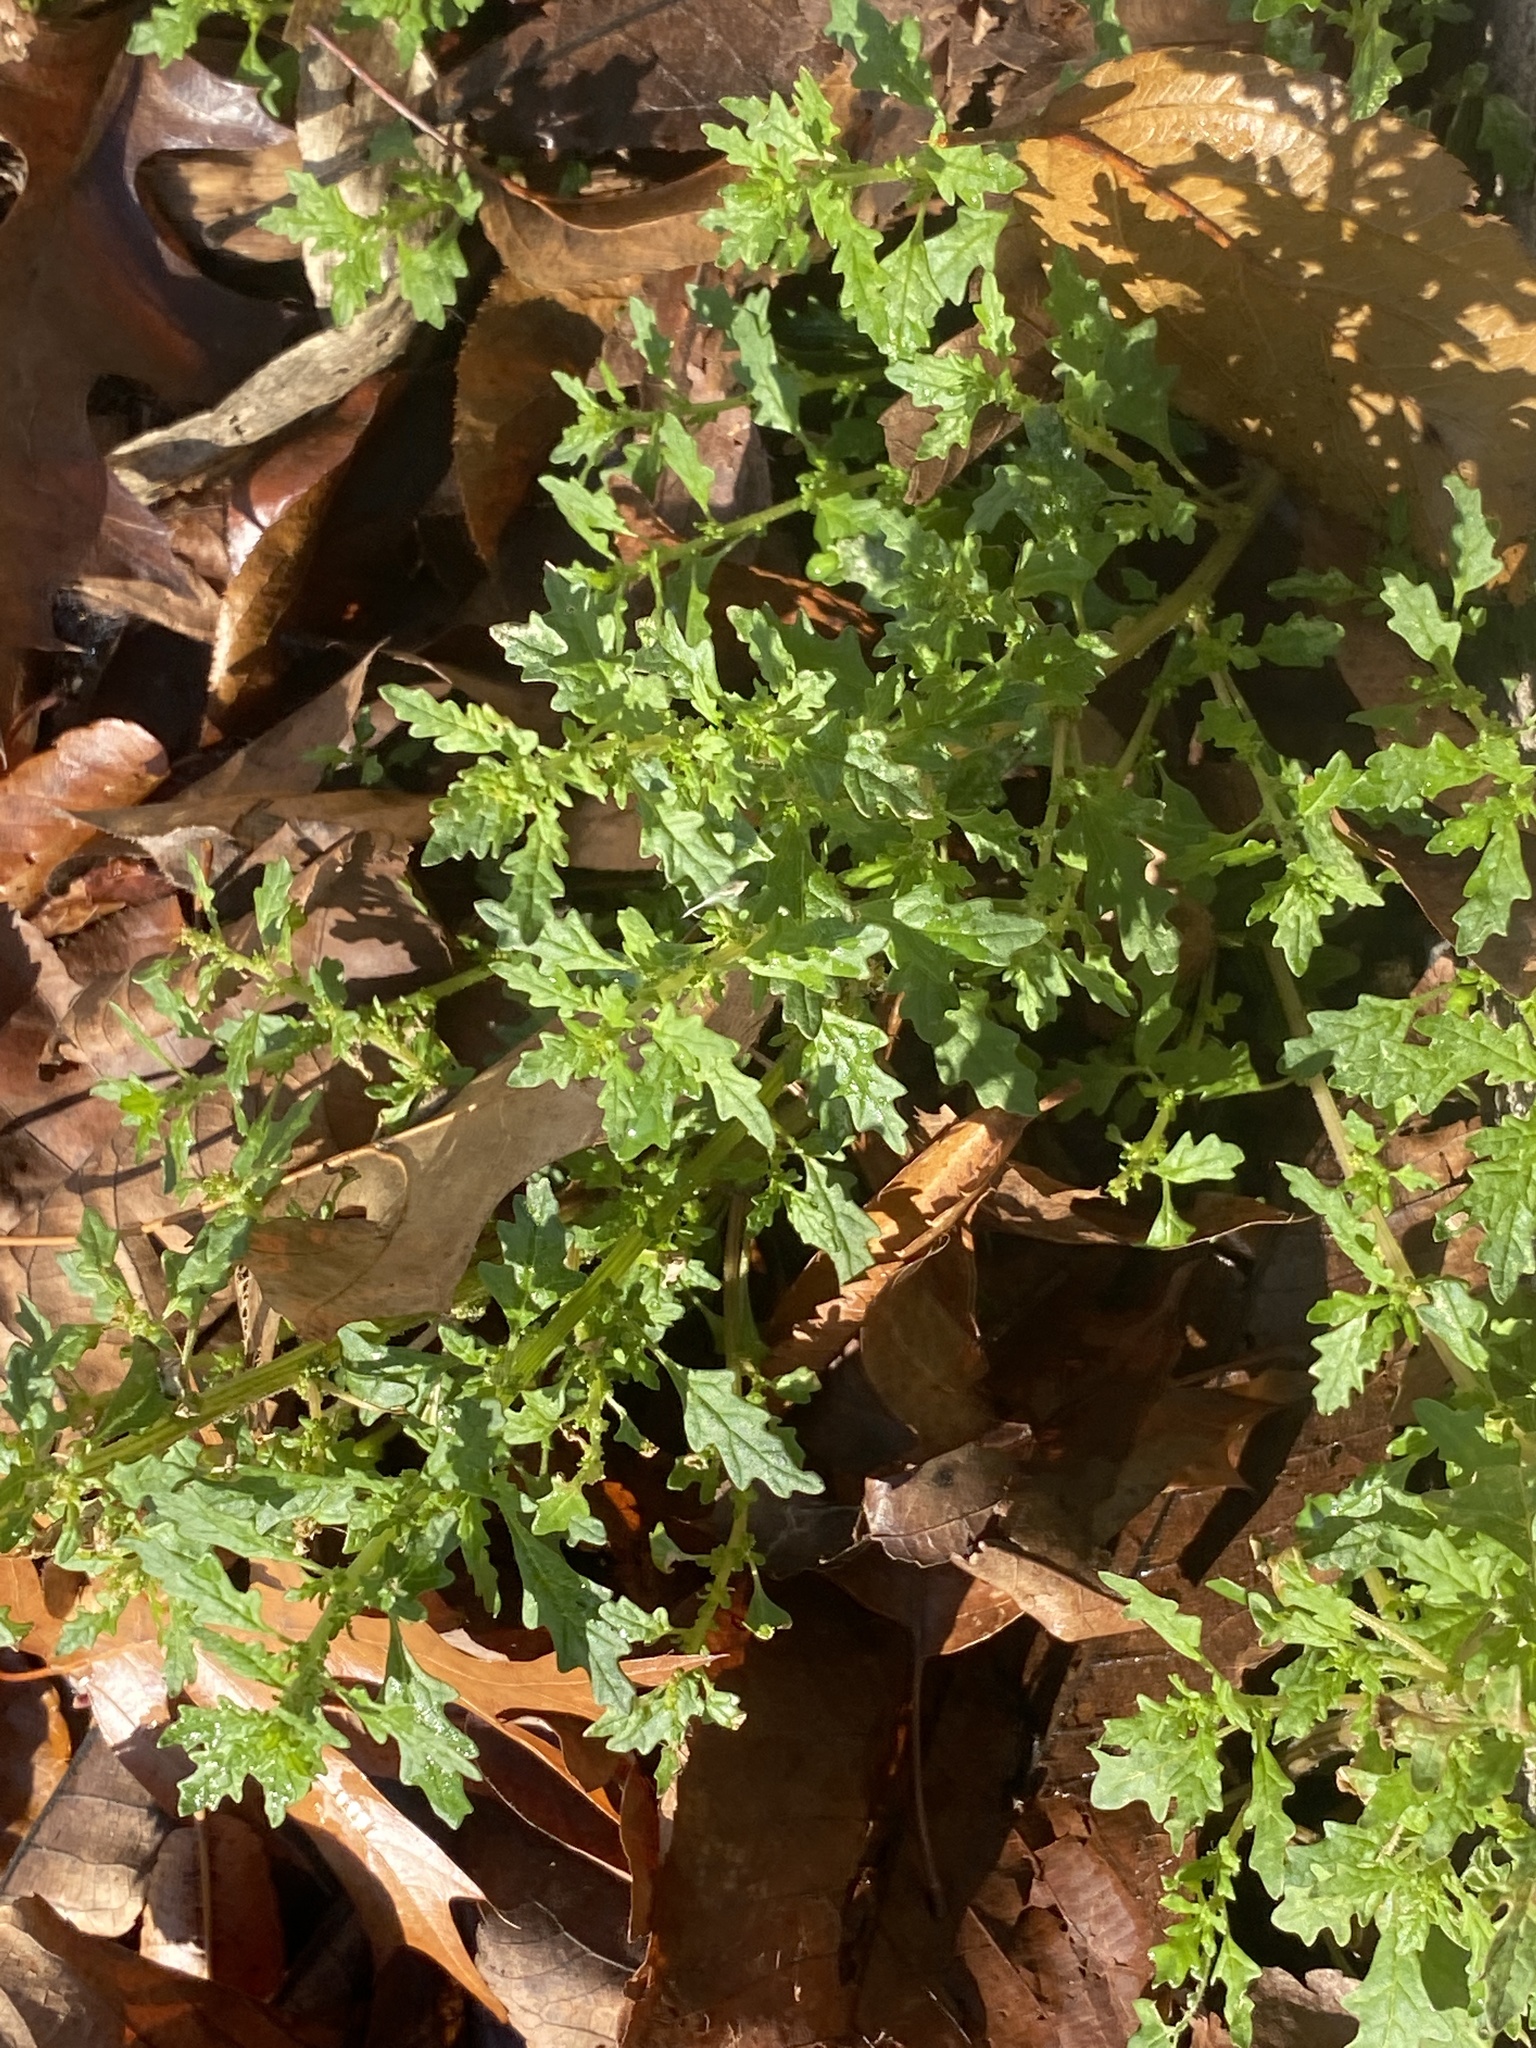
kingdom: Plantae
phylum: Tracheophyta
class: Magnoliopsida
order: Caryophyllales
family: Amaranthaceae
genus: Dysphania
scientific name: Dysphania pumilio
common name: Clammy goosefoot
